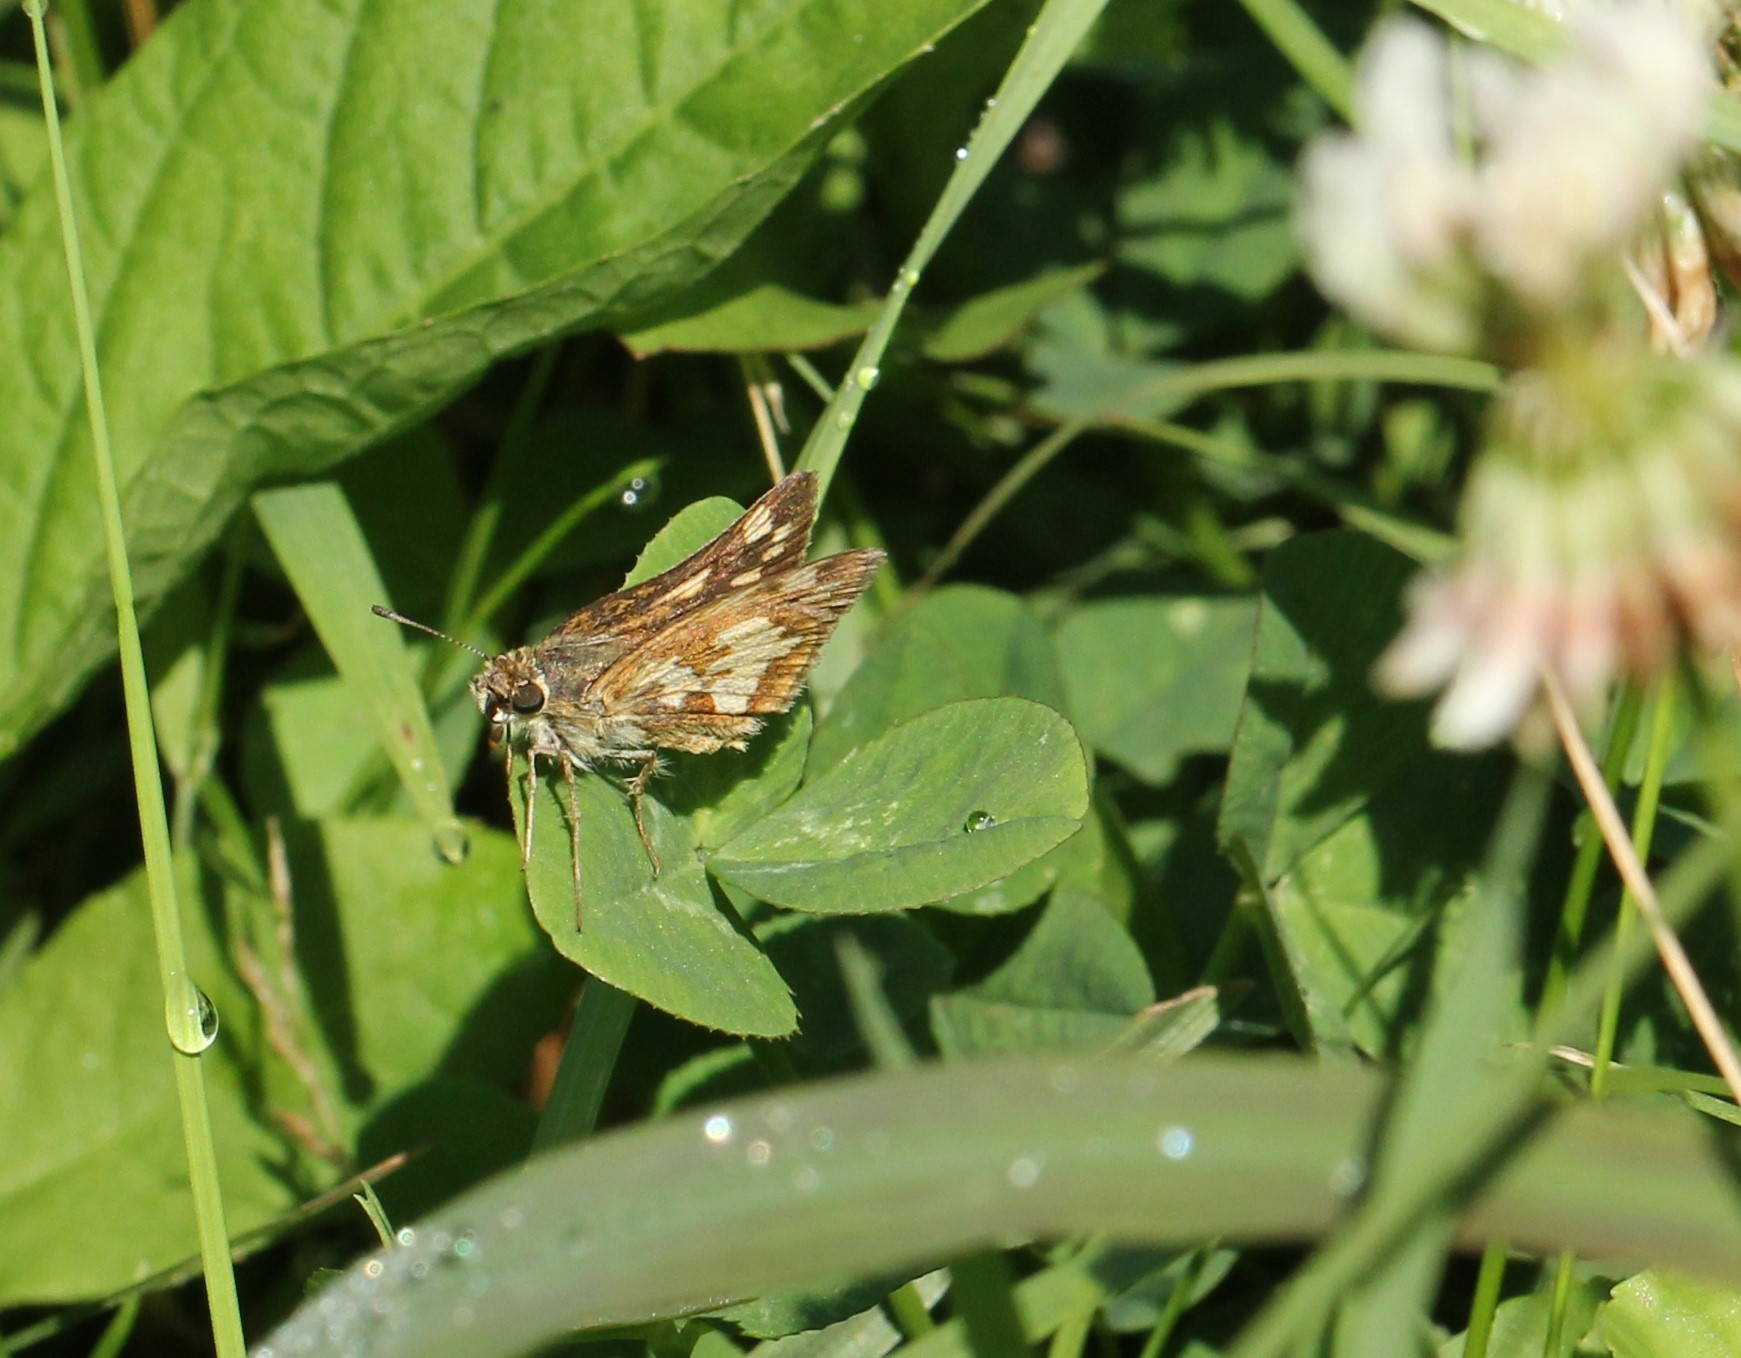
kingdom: Animalia
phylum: Arthropoda
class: Insecta
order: Lepidoptera
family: Hesperiidae
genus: Polites
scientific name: Polites coras
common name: Peck's skipper
